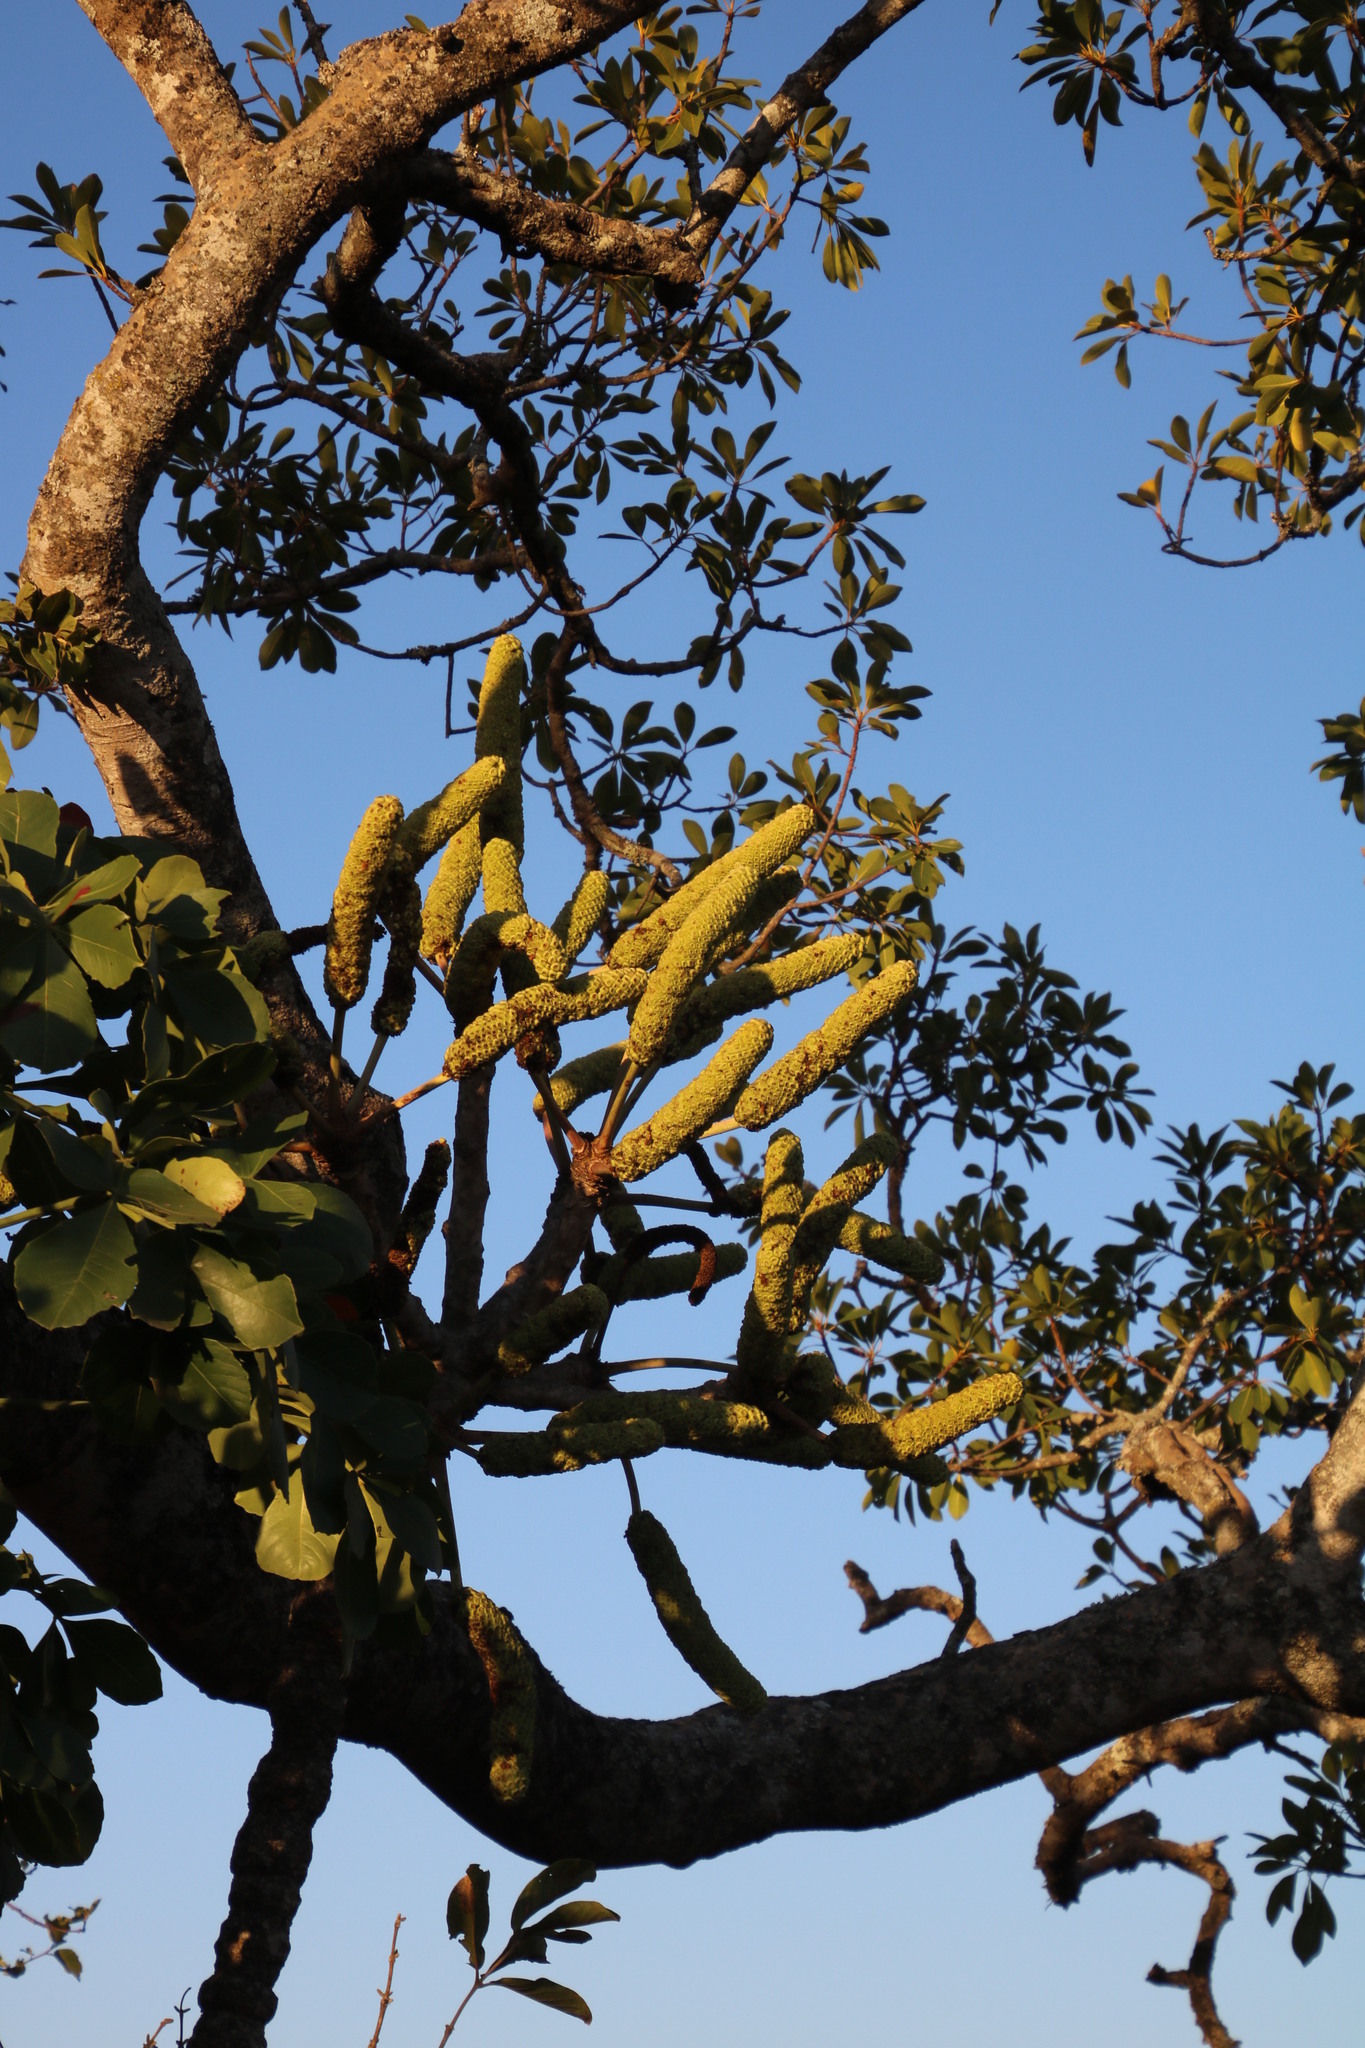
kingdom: Plantae
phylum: Tracheophyta
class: Magnoliopsida
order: Apiales
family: Araliaceae
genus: Cussonia
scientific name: Cussonia spicata
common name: Common cabbagetree
